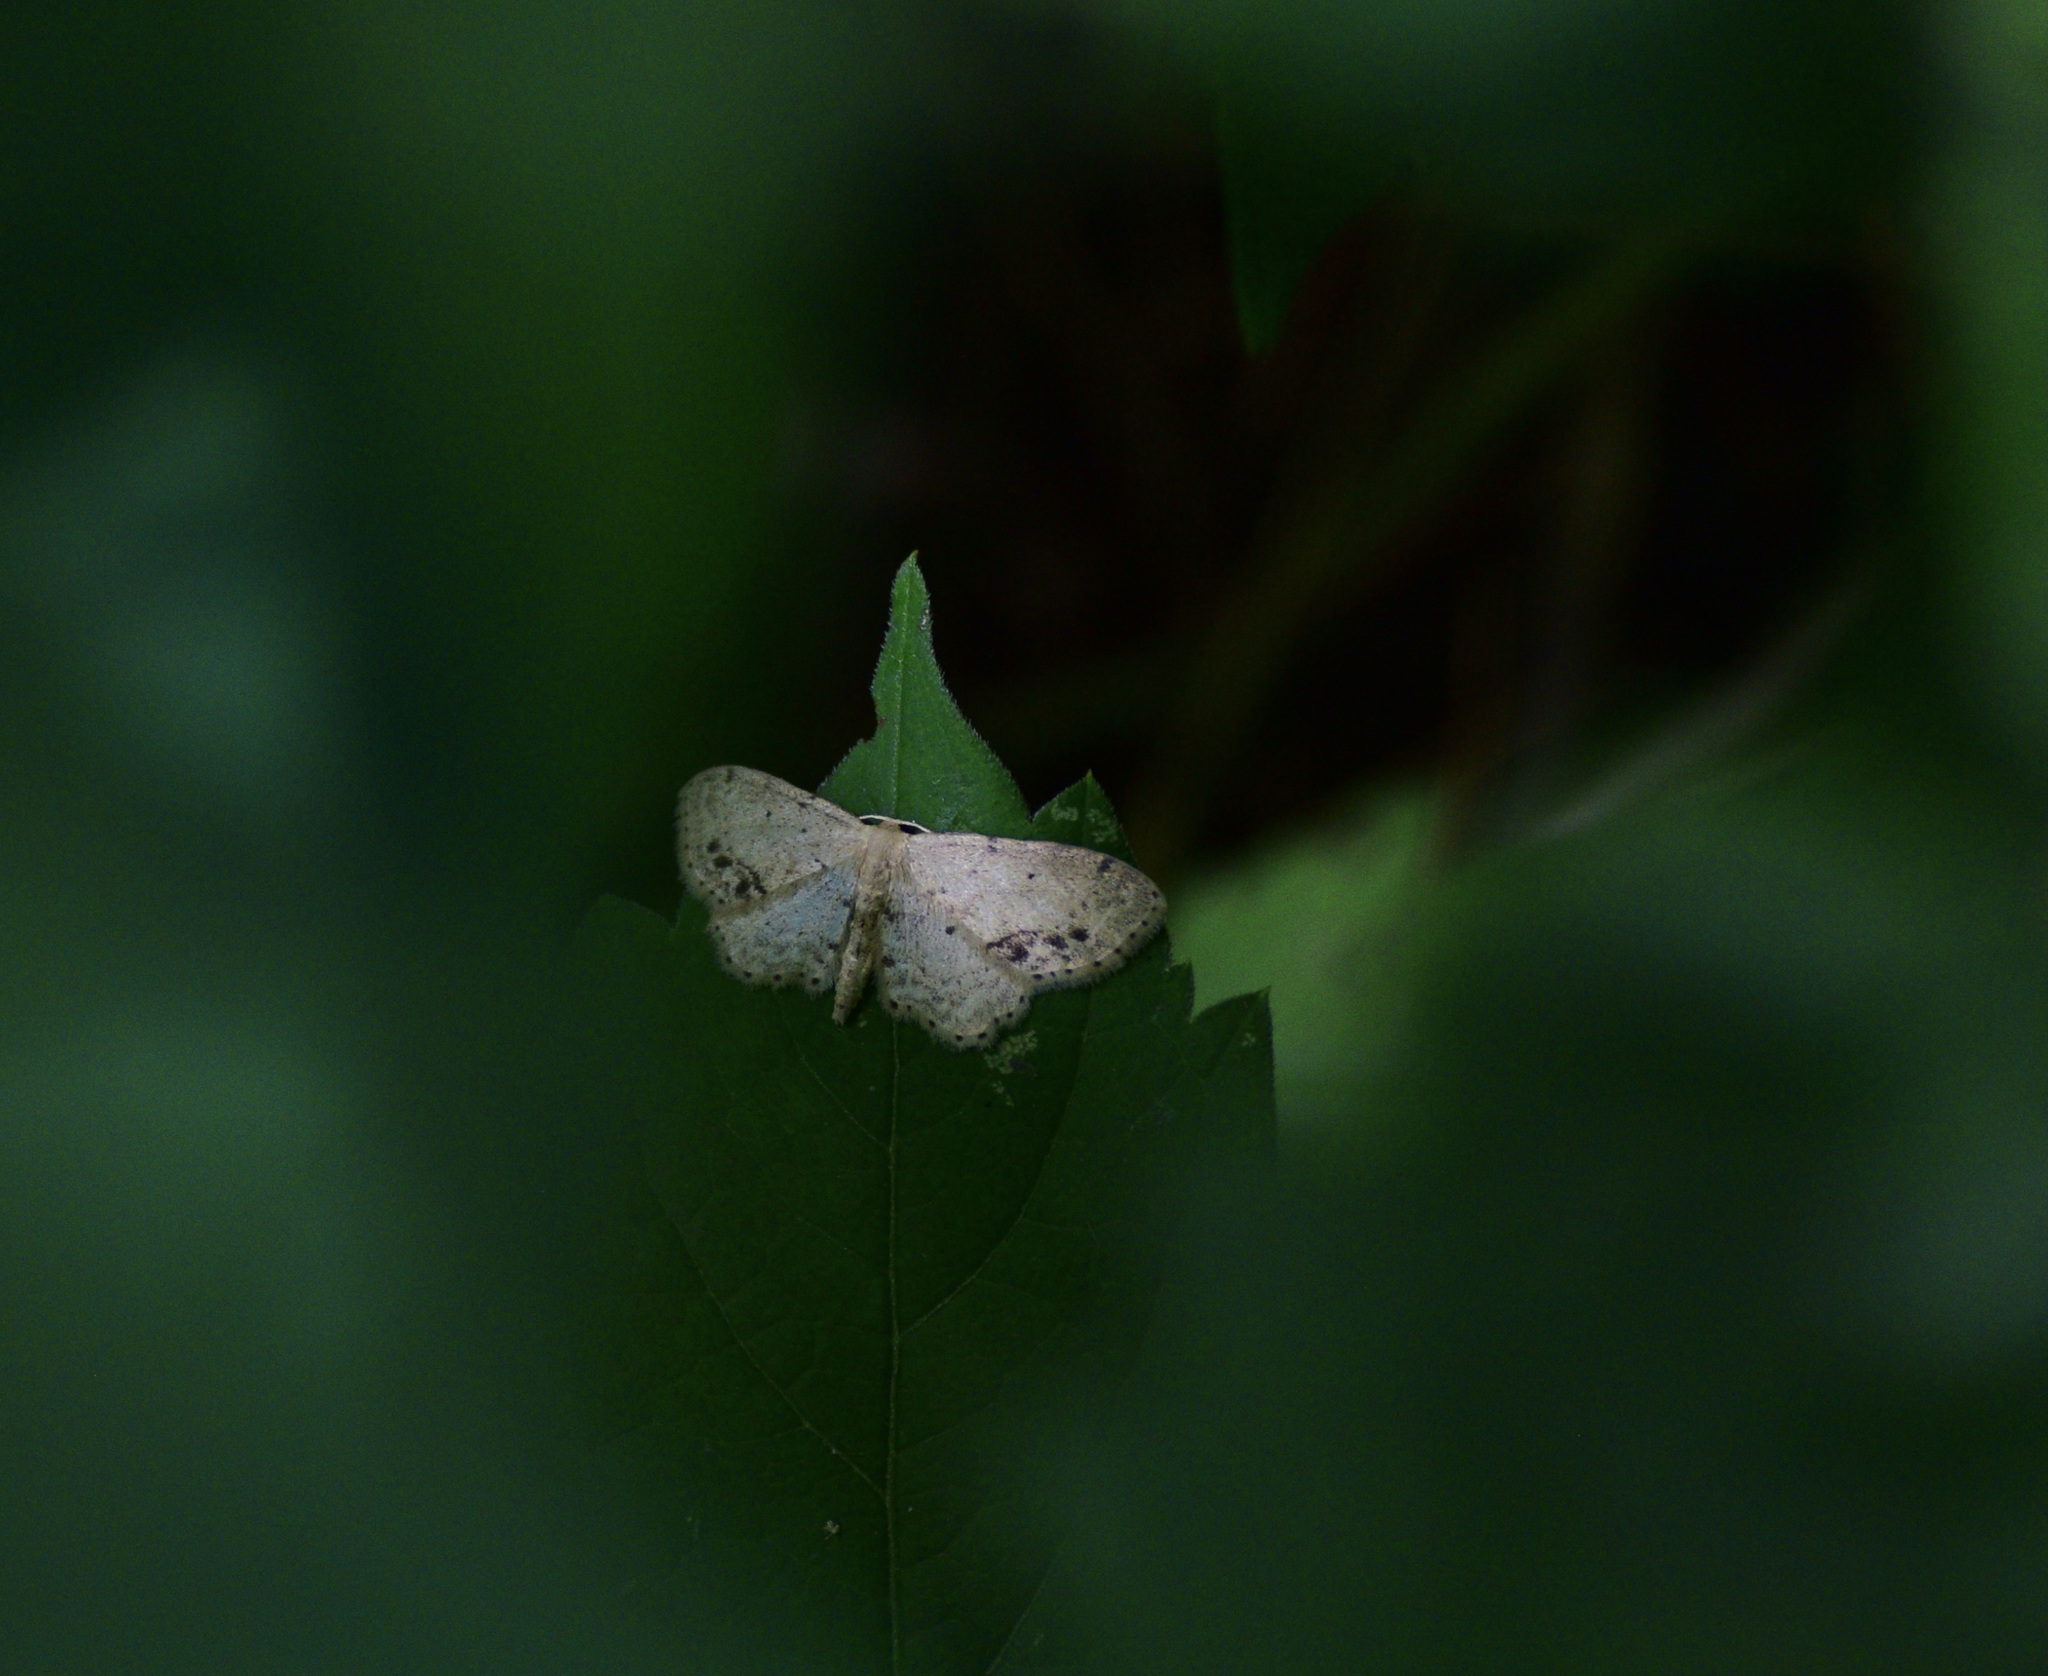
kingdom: Animalia
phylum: Arthropoda
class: Insecta
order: Lepidoptera
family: Geometridae
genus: Idaea
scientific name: Idaea dimidiata
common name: Single-dotted wave
